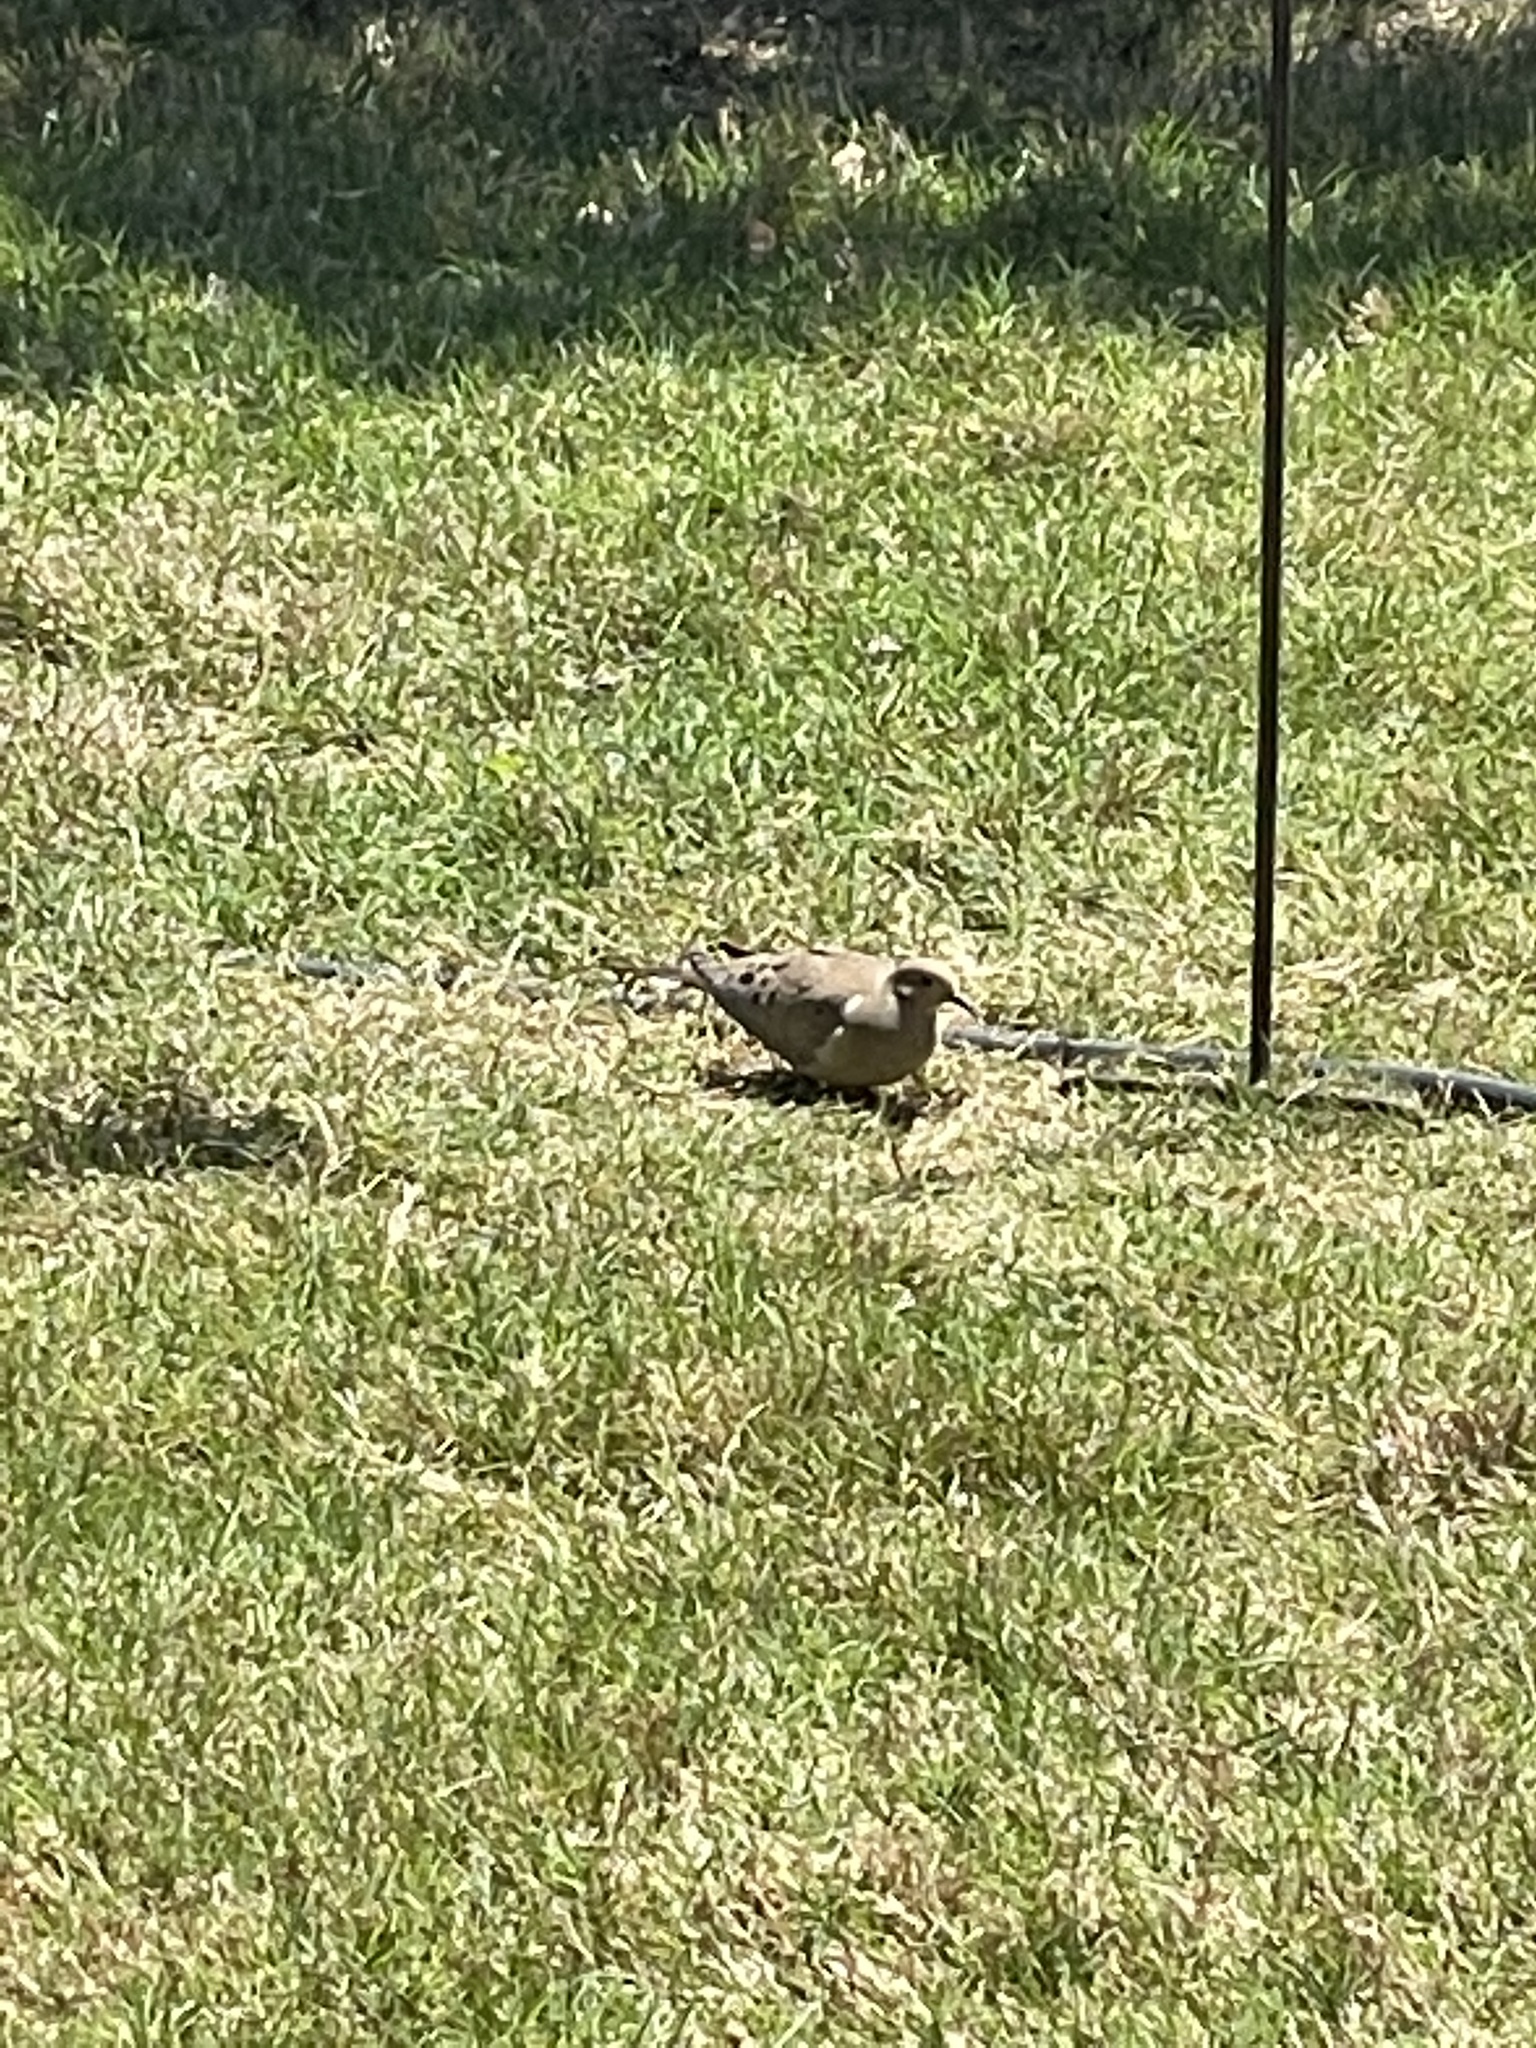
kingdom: Animalia
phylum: Chordata
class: Aves
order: Columbiformes
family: Columbidae
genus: Zenaida
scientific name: Zenaida macroura
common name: Mourning dove
